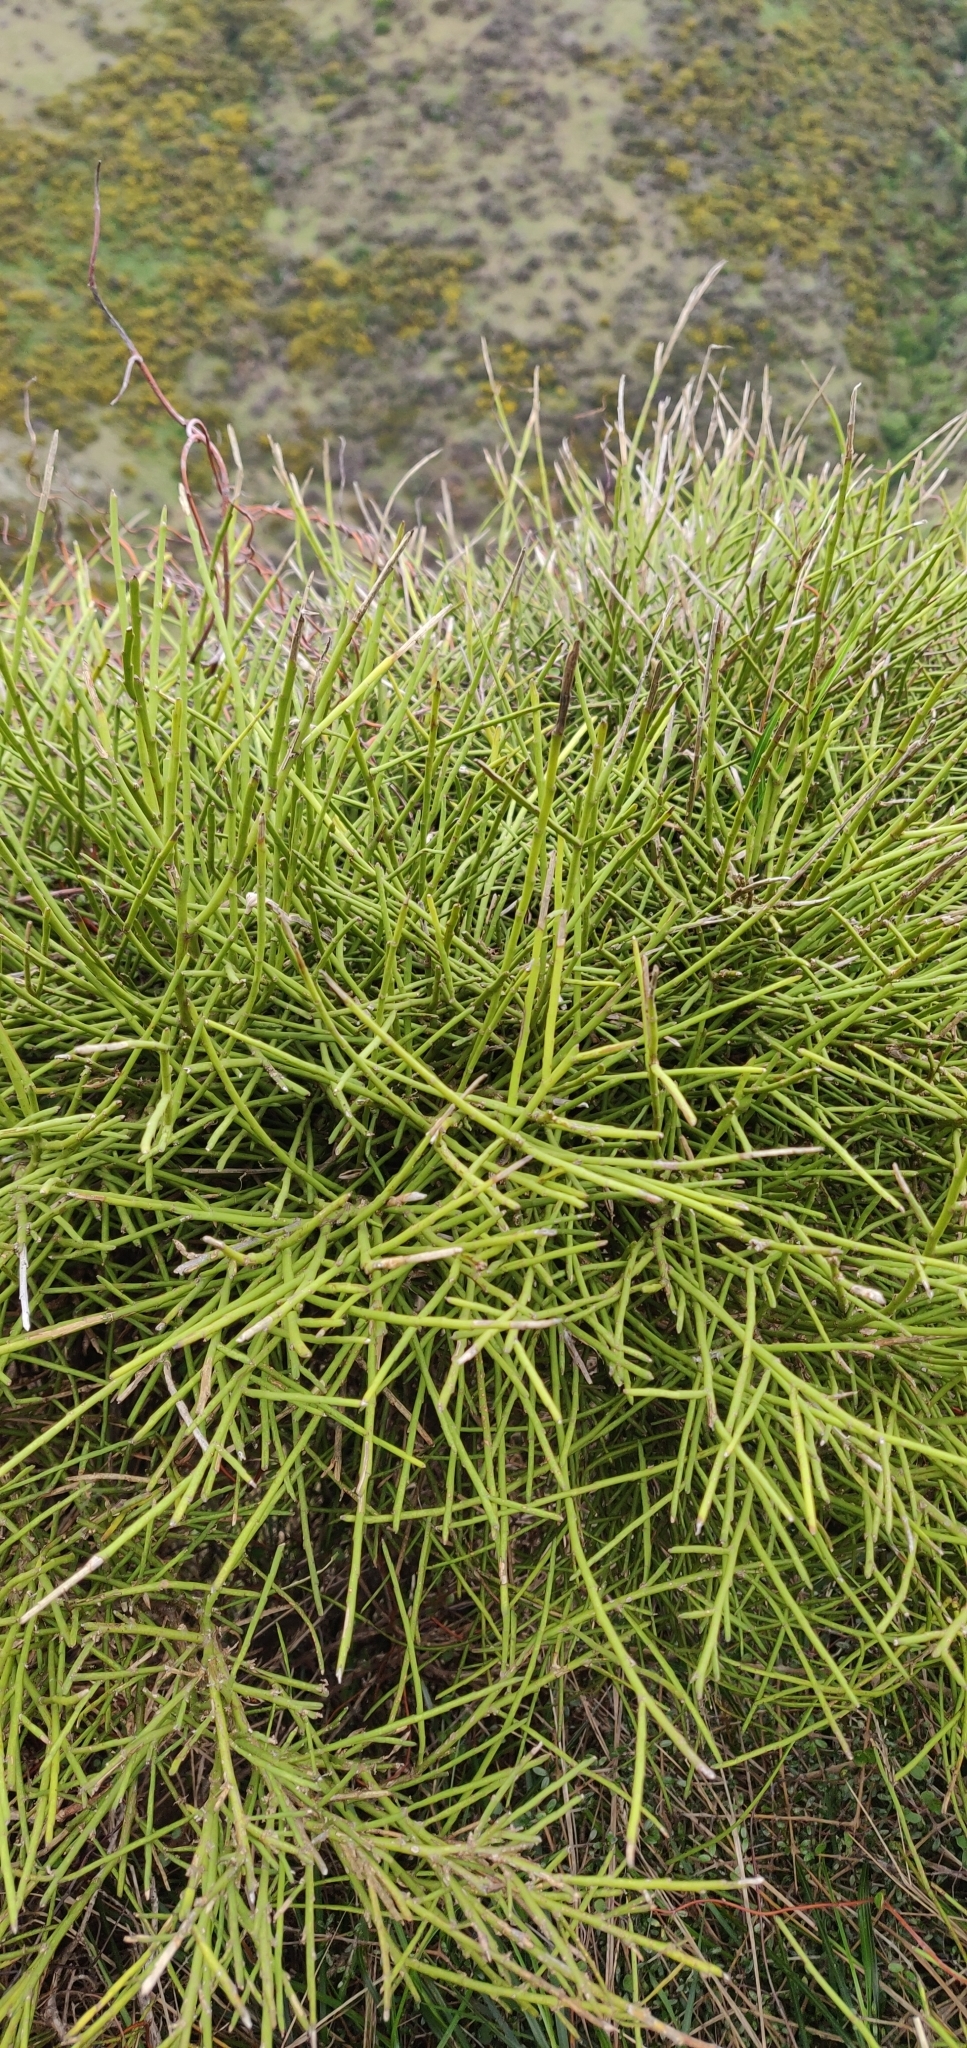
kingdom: Plantae
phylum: Tracheophyta
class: Magnoliopsida
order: Fabales
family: Fabaceae
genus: Carmichaelia
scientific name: Carmichaelia australis
